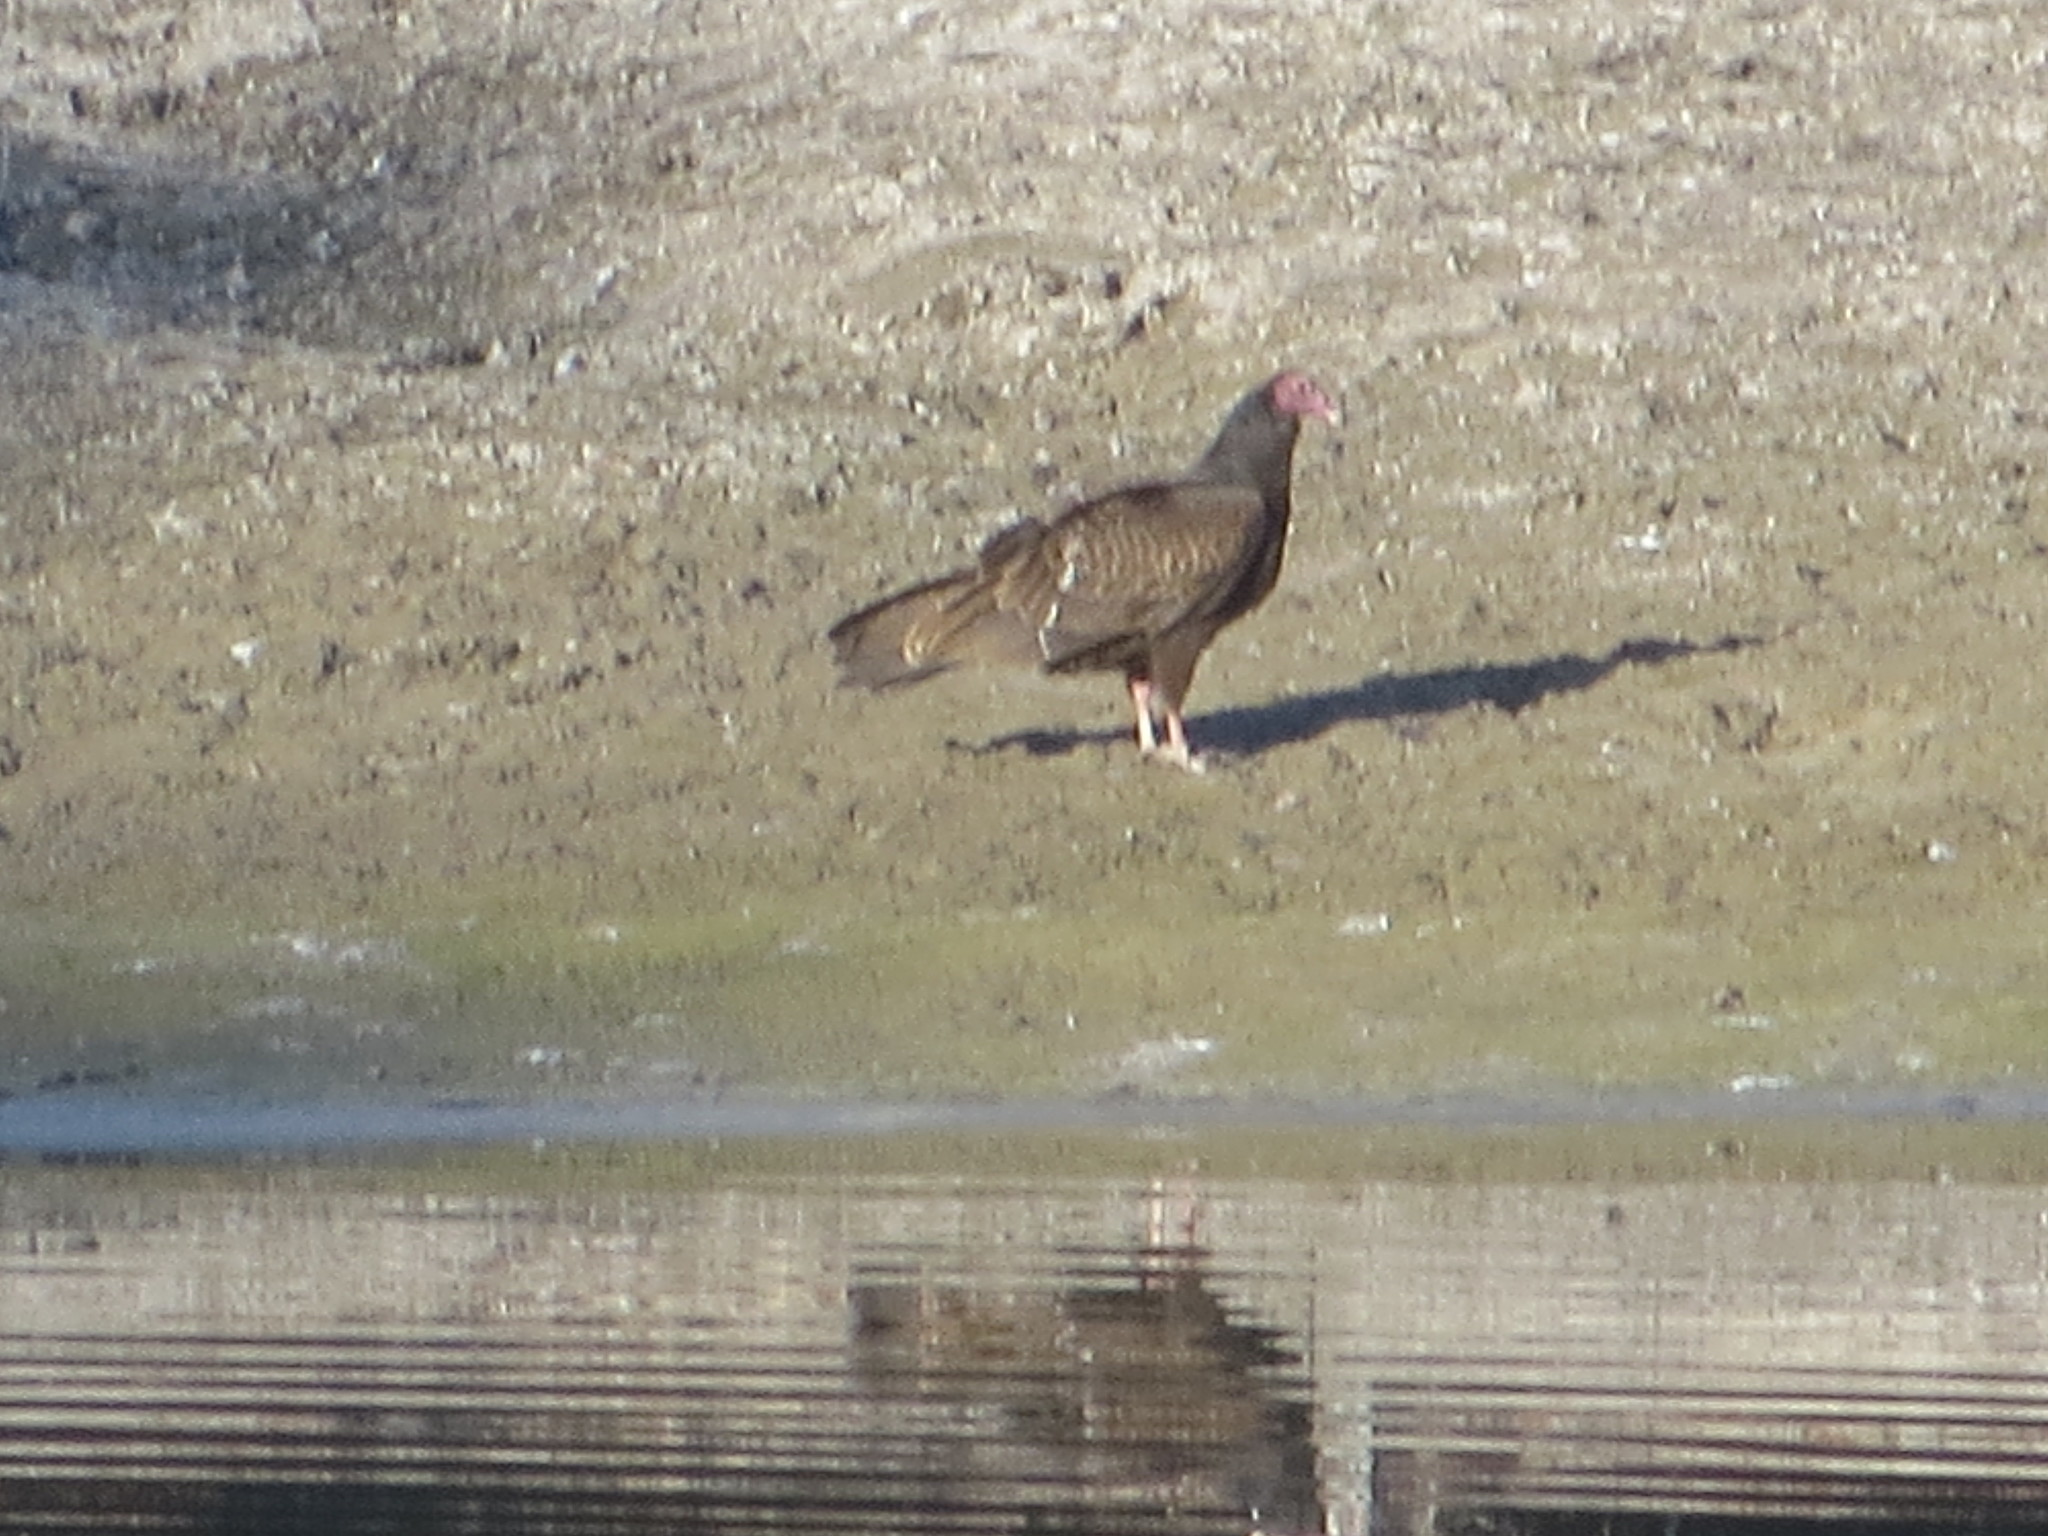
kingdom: Animalia
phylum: Chordata
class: Aves
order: Accipitriformes
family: Cathartidae
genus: Cathartes
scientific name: Cathartes aura
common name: Turkey vulture
